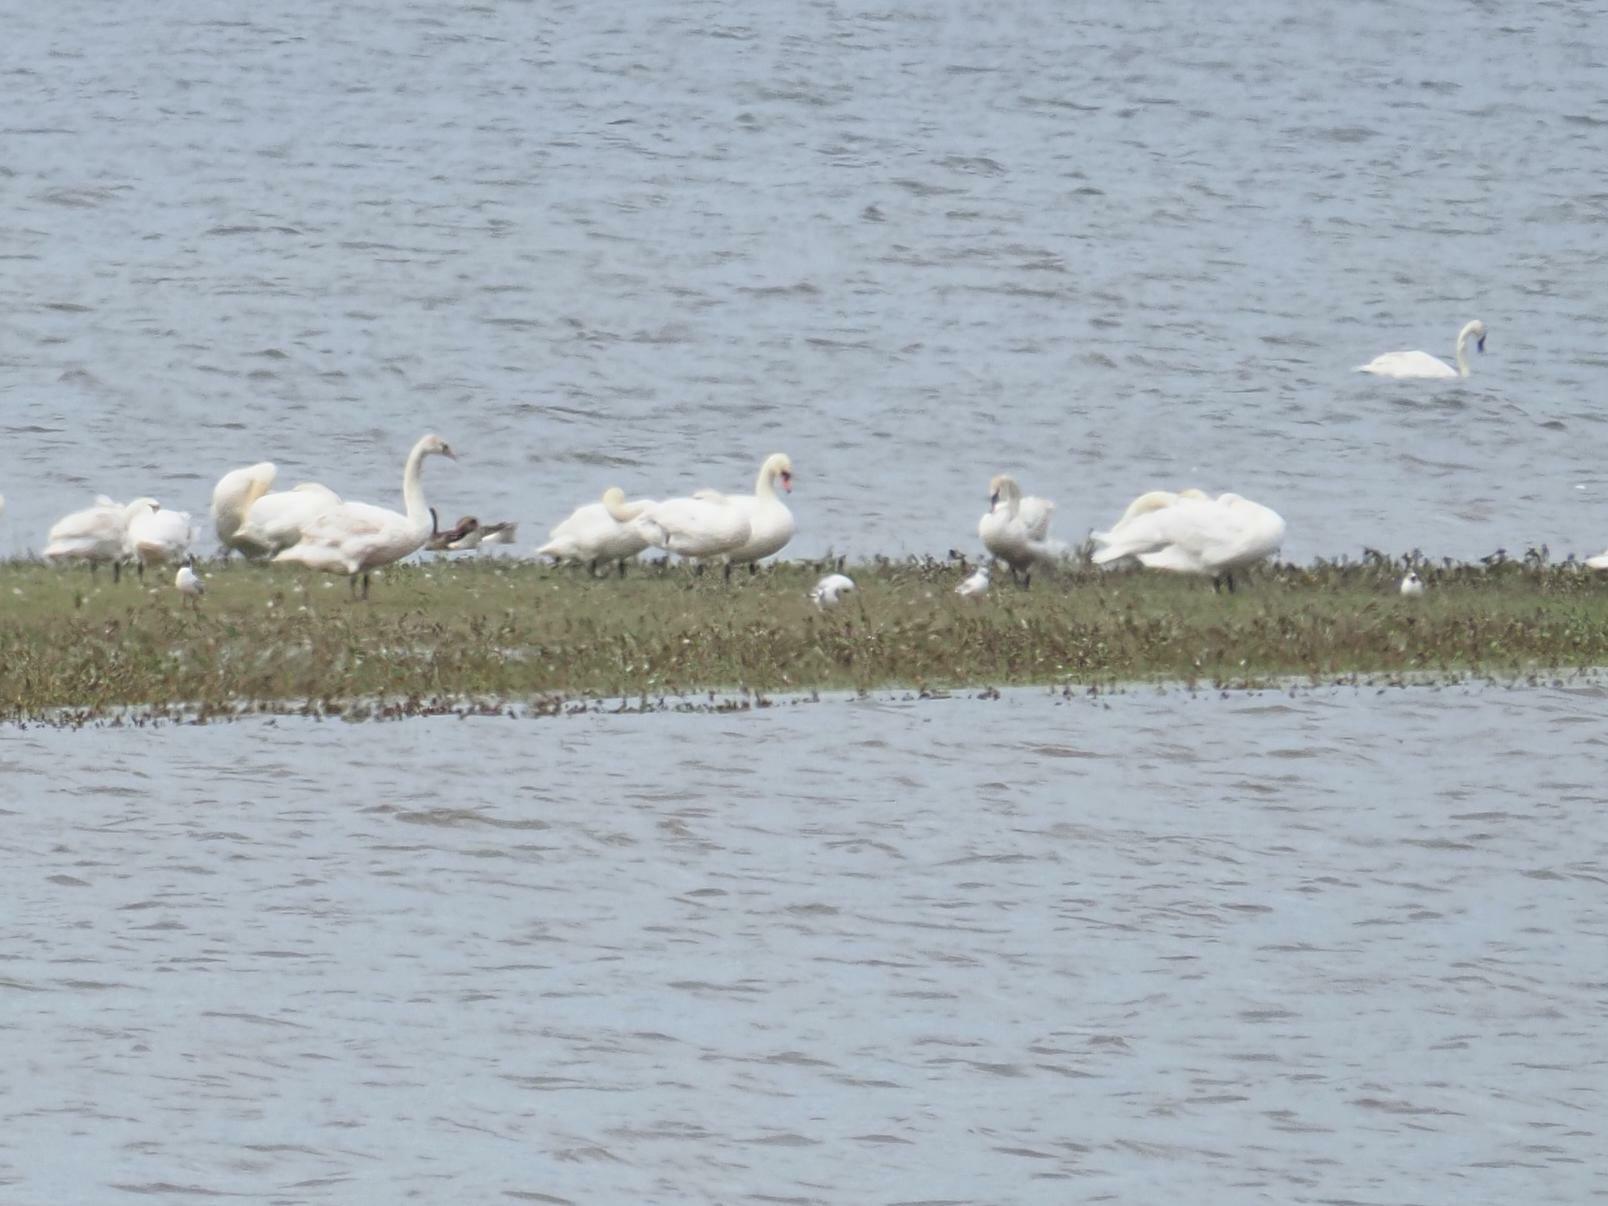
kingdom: Animalia
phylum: Chordata
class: Aves
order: Anseriformes
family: Anatidae
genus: Cygnus
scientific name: Cygnus olor
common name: Mute swan
